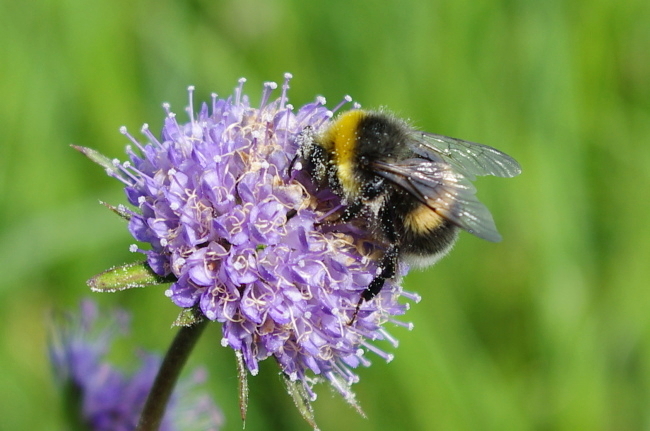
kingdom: Plantae
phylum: Tracheophyta
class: Magnoliopsida
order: Dipsacales
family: Caprifoliaceae
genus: Succisa
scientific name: Succisa pratensis
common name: Devil's-bit
